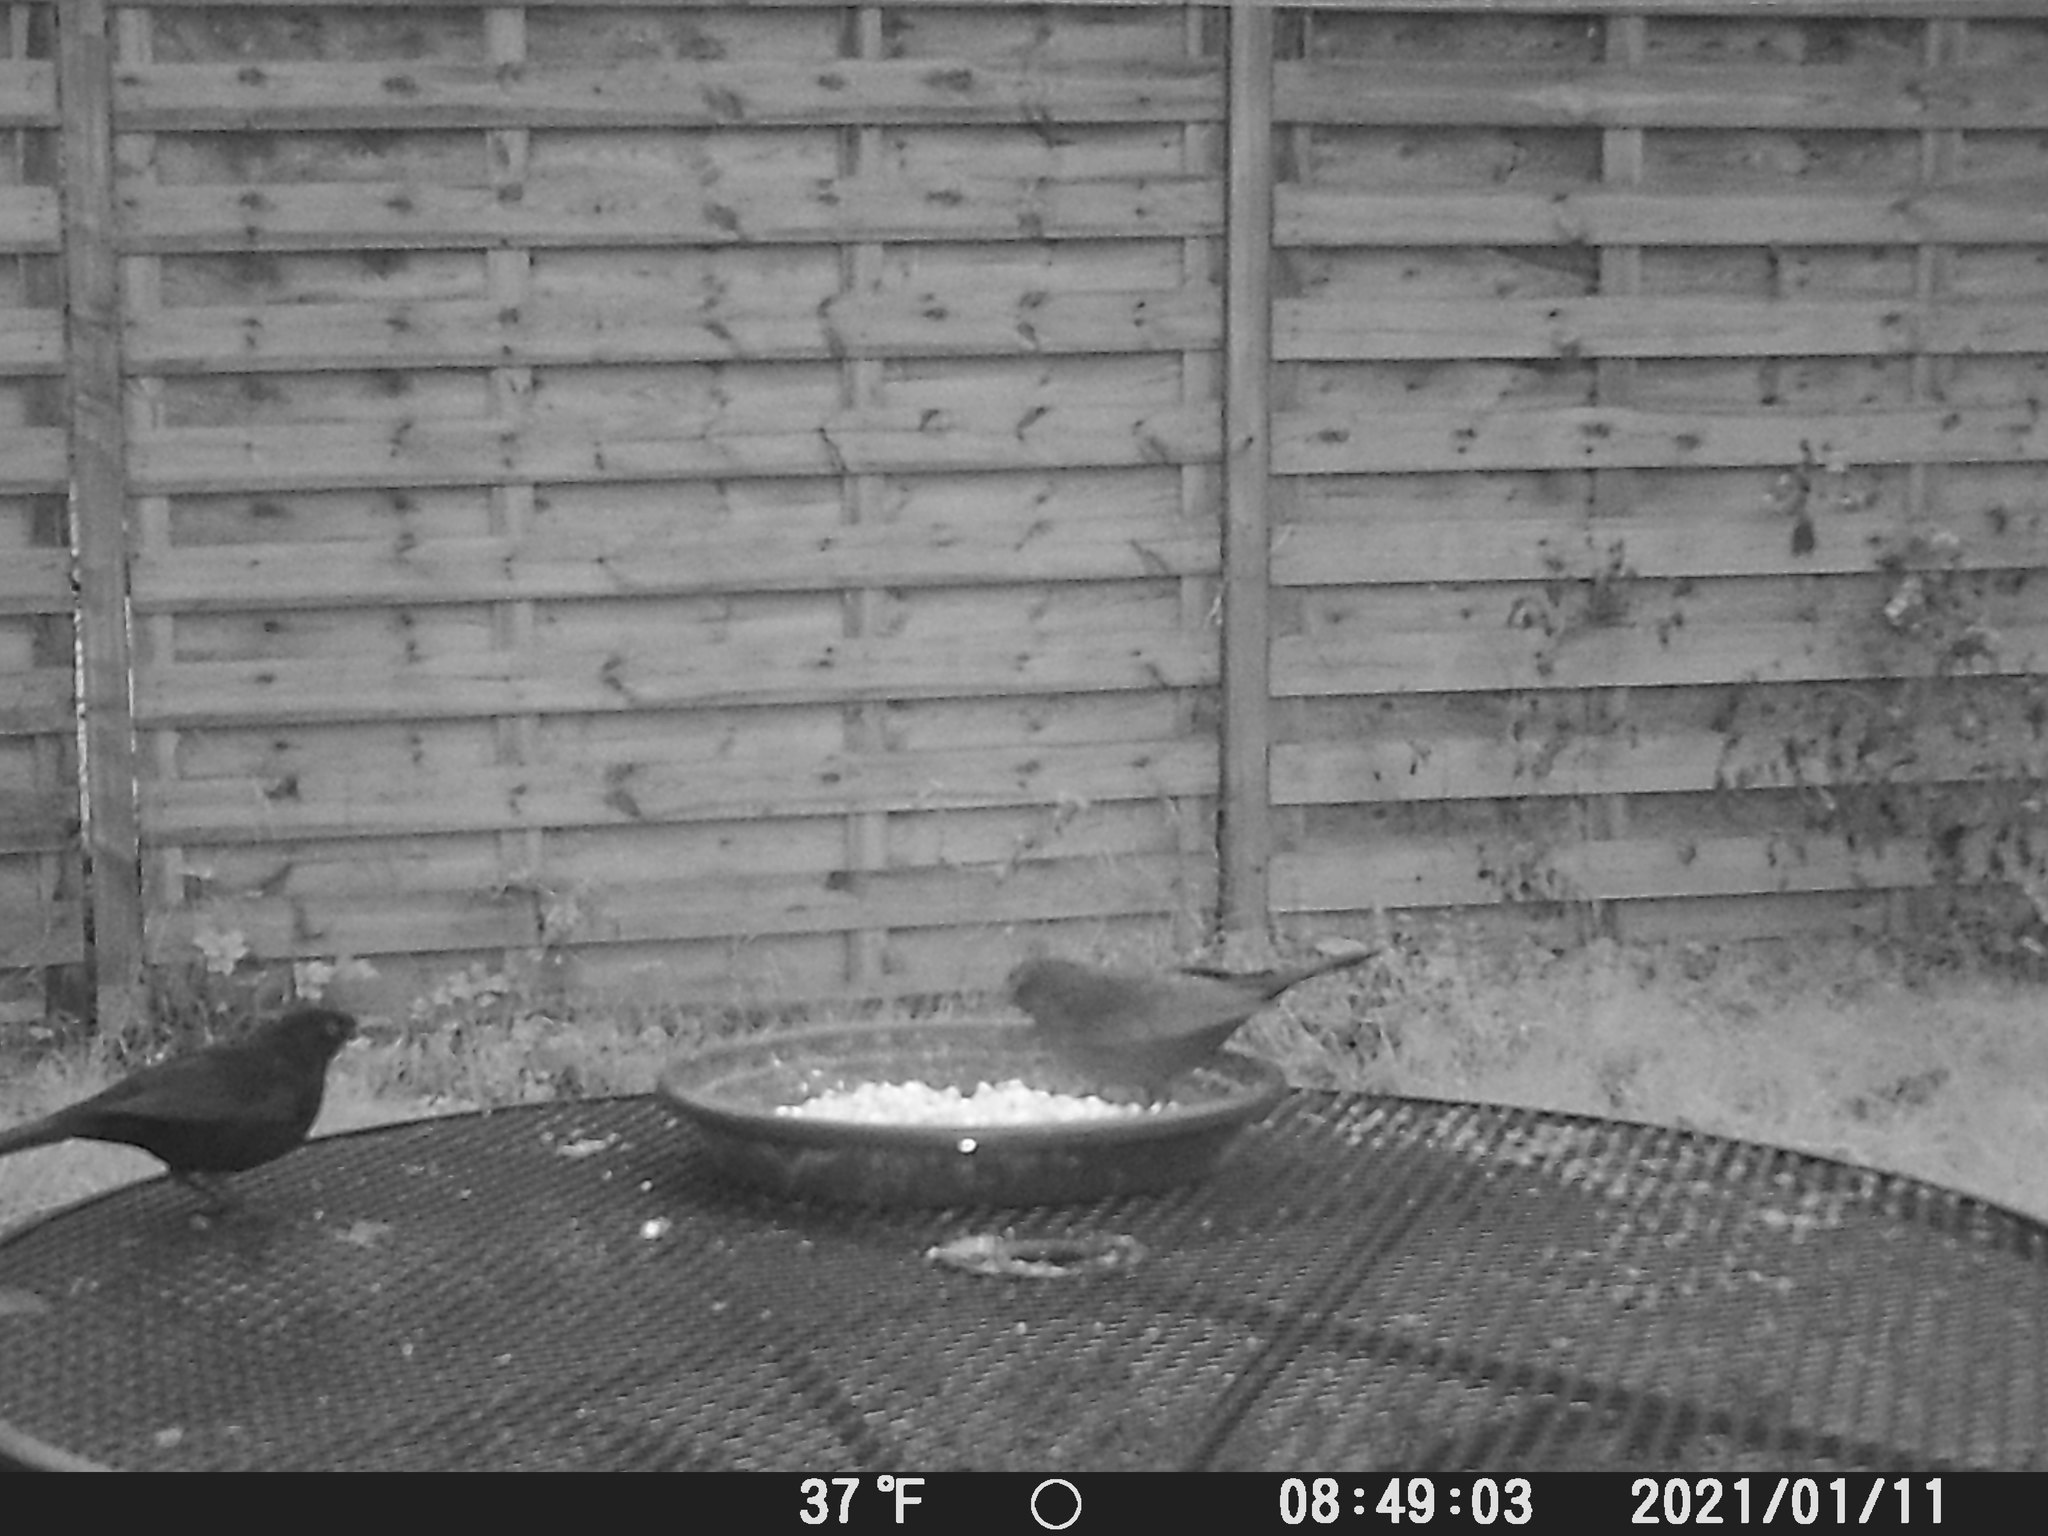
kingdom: Animalia
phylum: Chordata
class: Aves
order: Passeriformes
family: Turdidae
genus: Turdus
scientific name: Turdus merula
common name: Common blackbird
